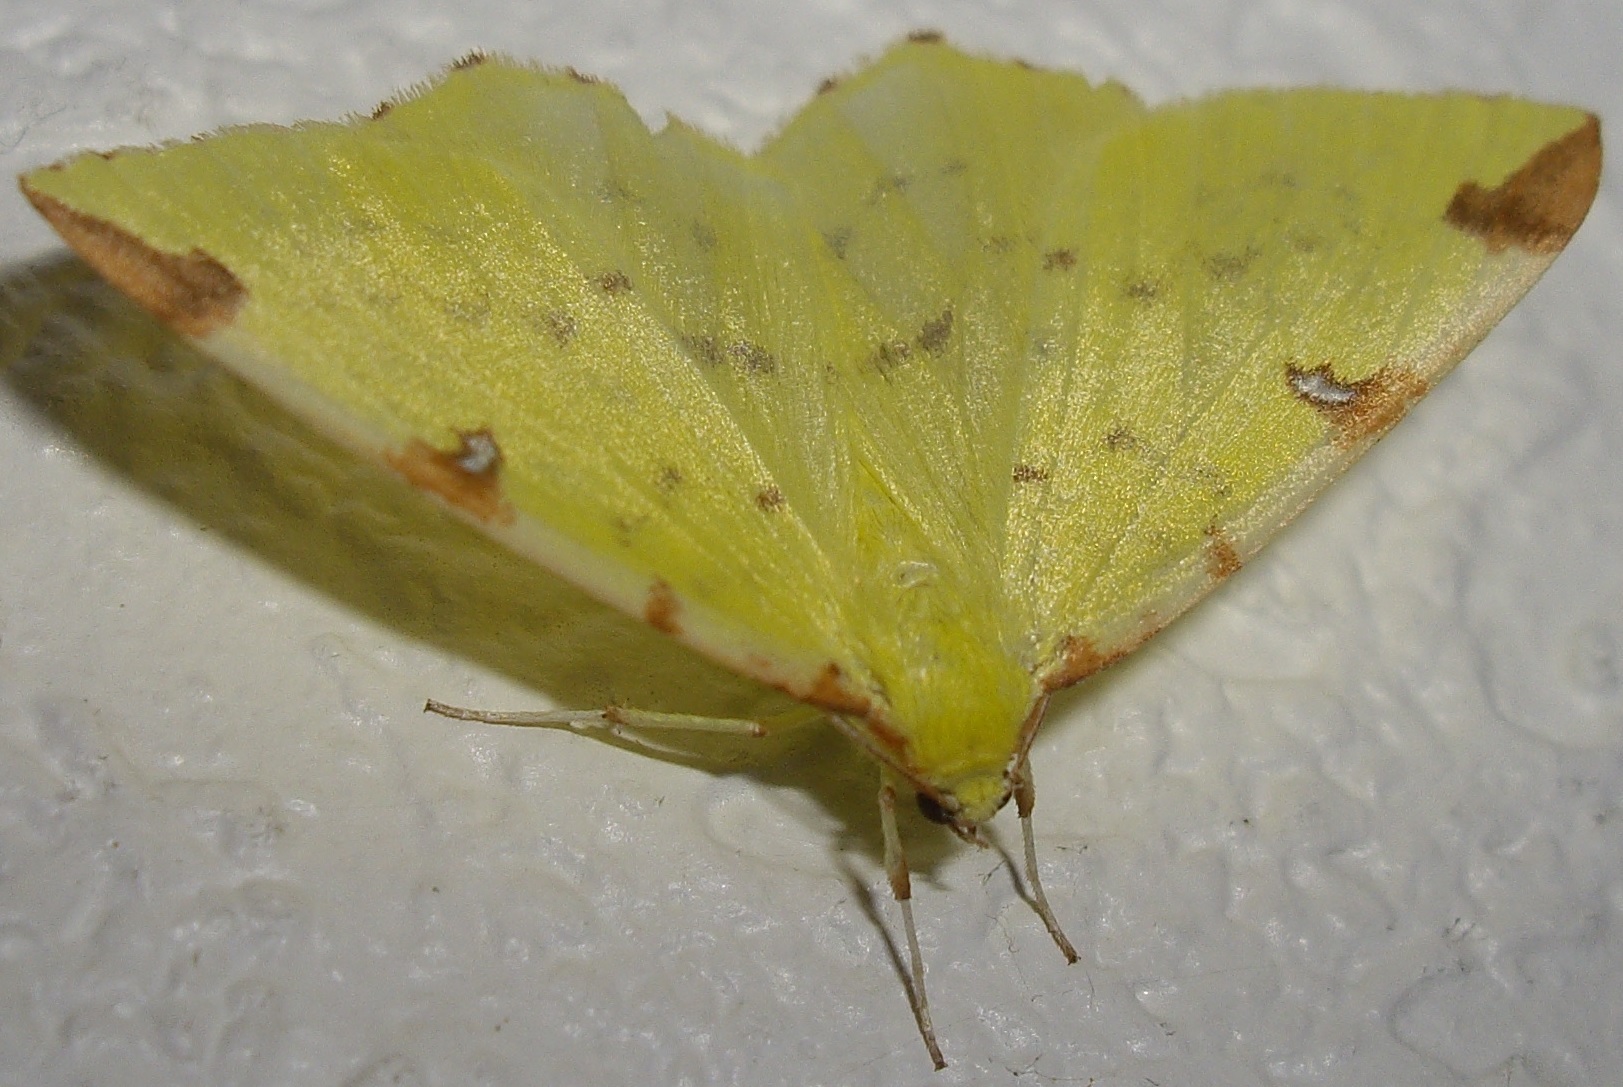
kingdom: Animalia
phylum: Arthropoda
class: Insecta
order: Lepidoptera
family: Geometridae
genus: Opisthograptis
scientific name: Opisthograptis luteolata
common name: Brimstone moth
